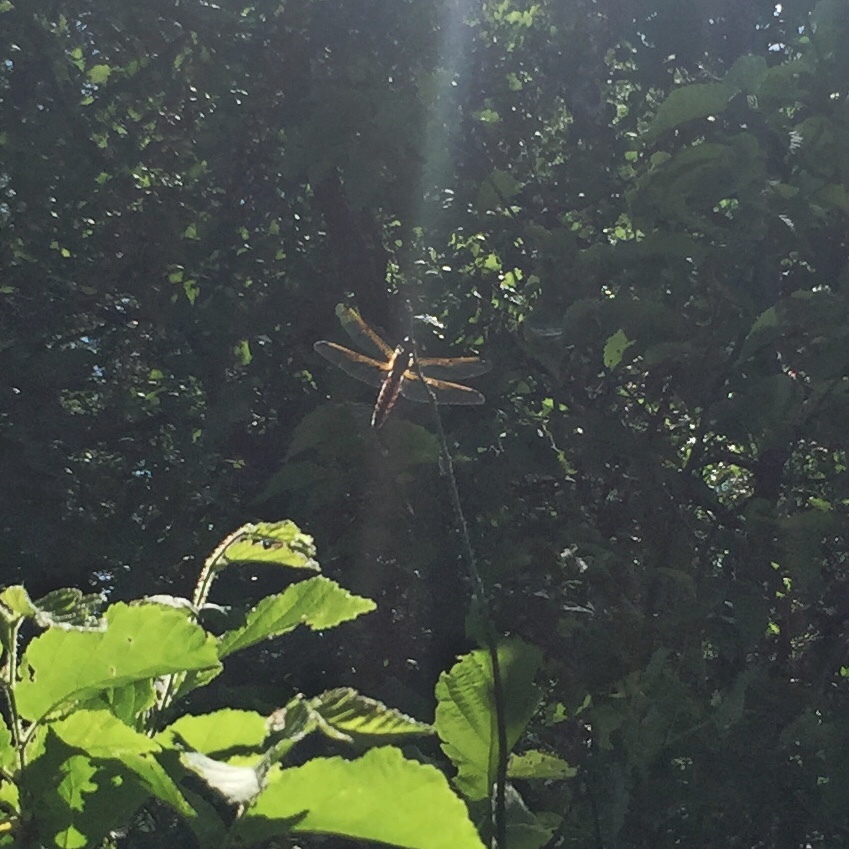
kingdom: Animalia
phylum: Arthropoda
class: Insecta
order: Odonata
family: Libellulidae
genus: Libellula
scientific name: Libellula quadrimaculata
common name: Four-spotted chaser
